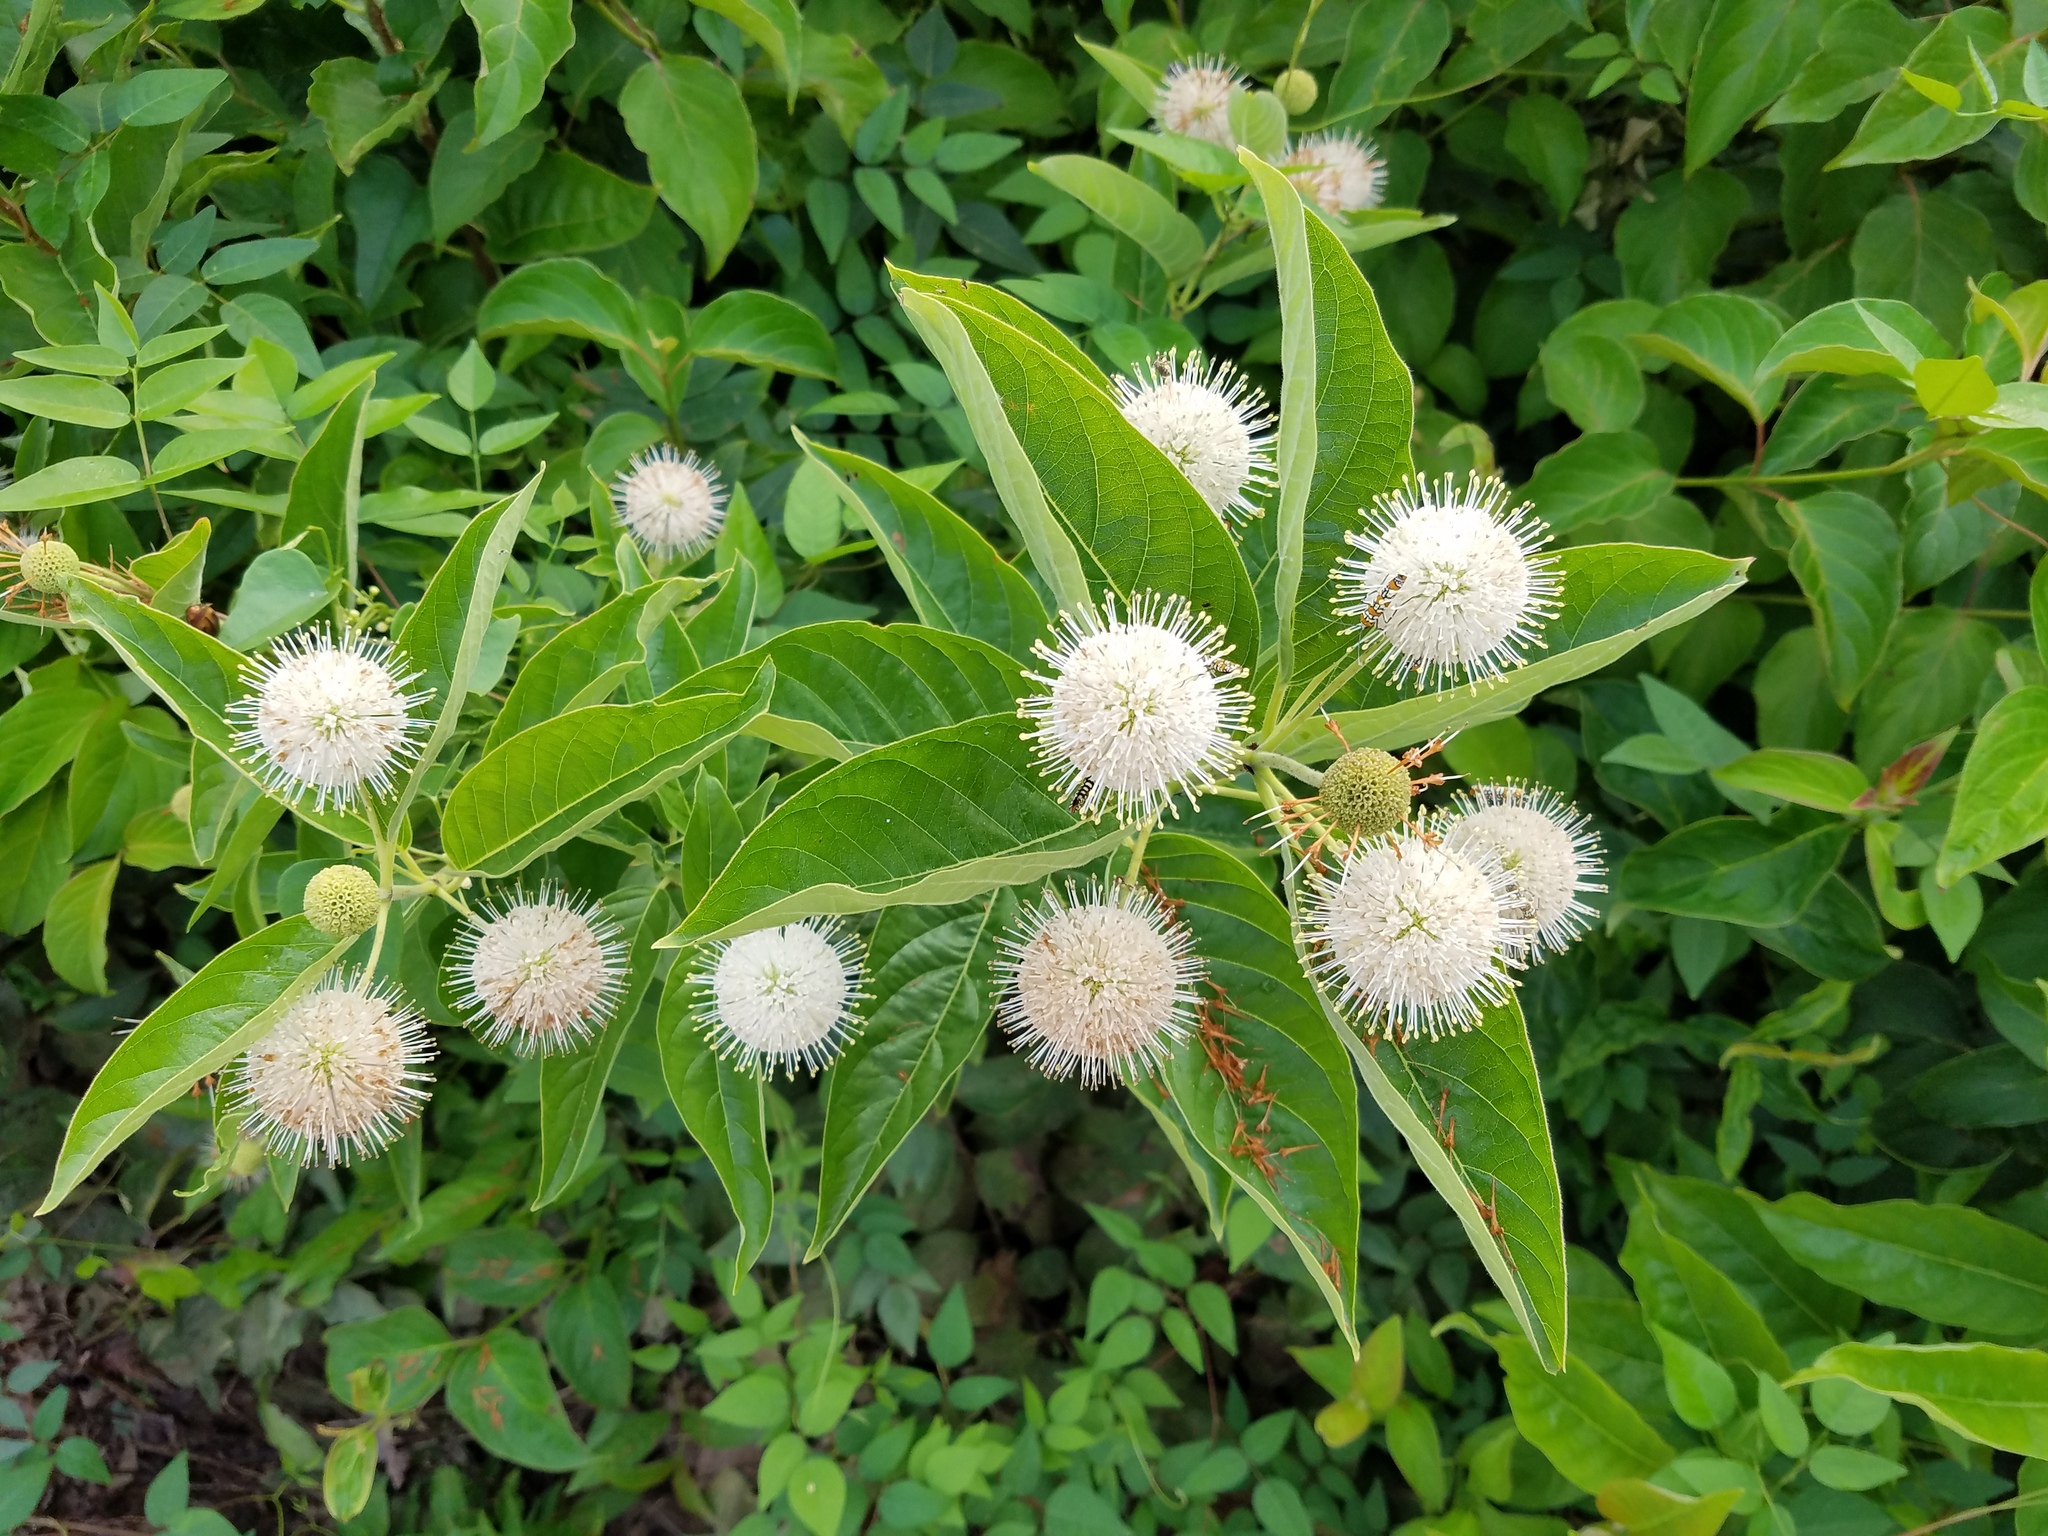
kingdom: Plantae
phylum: Tracheophyta
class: Magnoliopsida
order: Gentianales
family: Rubiaceae
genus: Cephalanthus
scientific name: Cephalanthus occidentalis
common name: Button-willow
